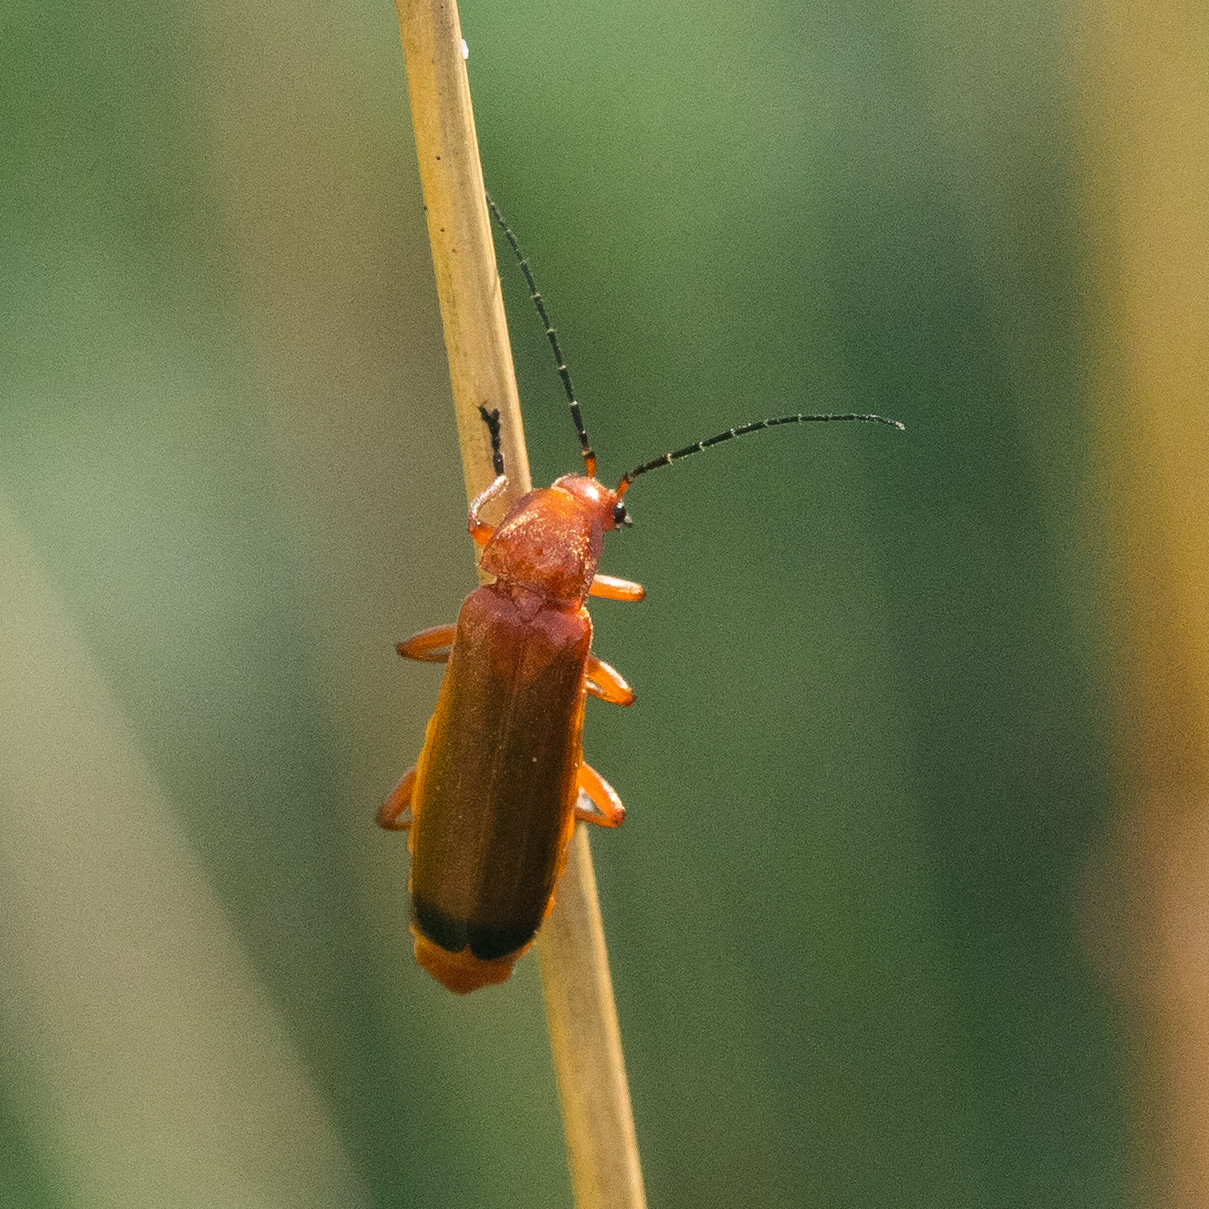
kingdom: Animalia
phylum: Arthropoda
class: Insecta
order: Coleoptera
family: Cantharidae
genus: Rhagonycha
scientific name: Rhagonycha fulva
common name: Common red soldier beetle
